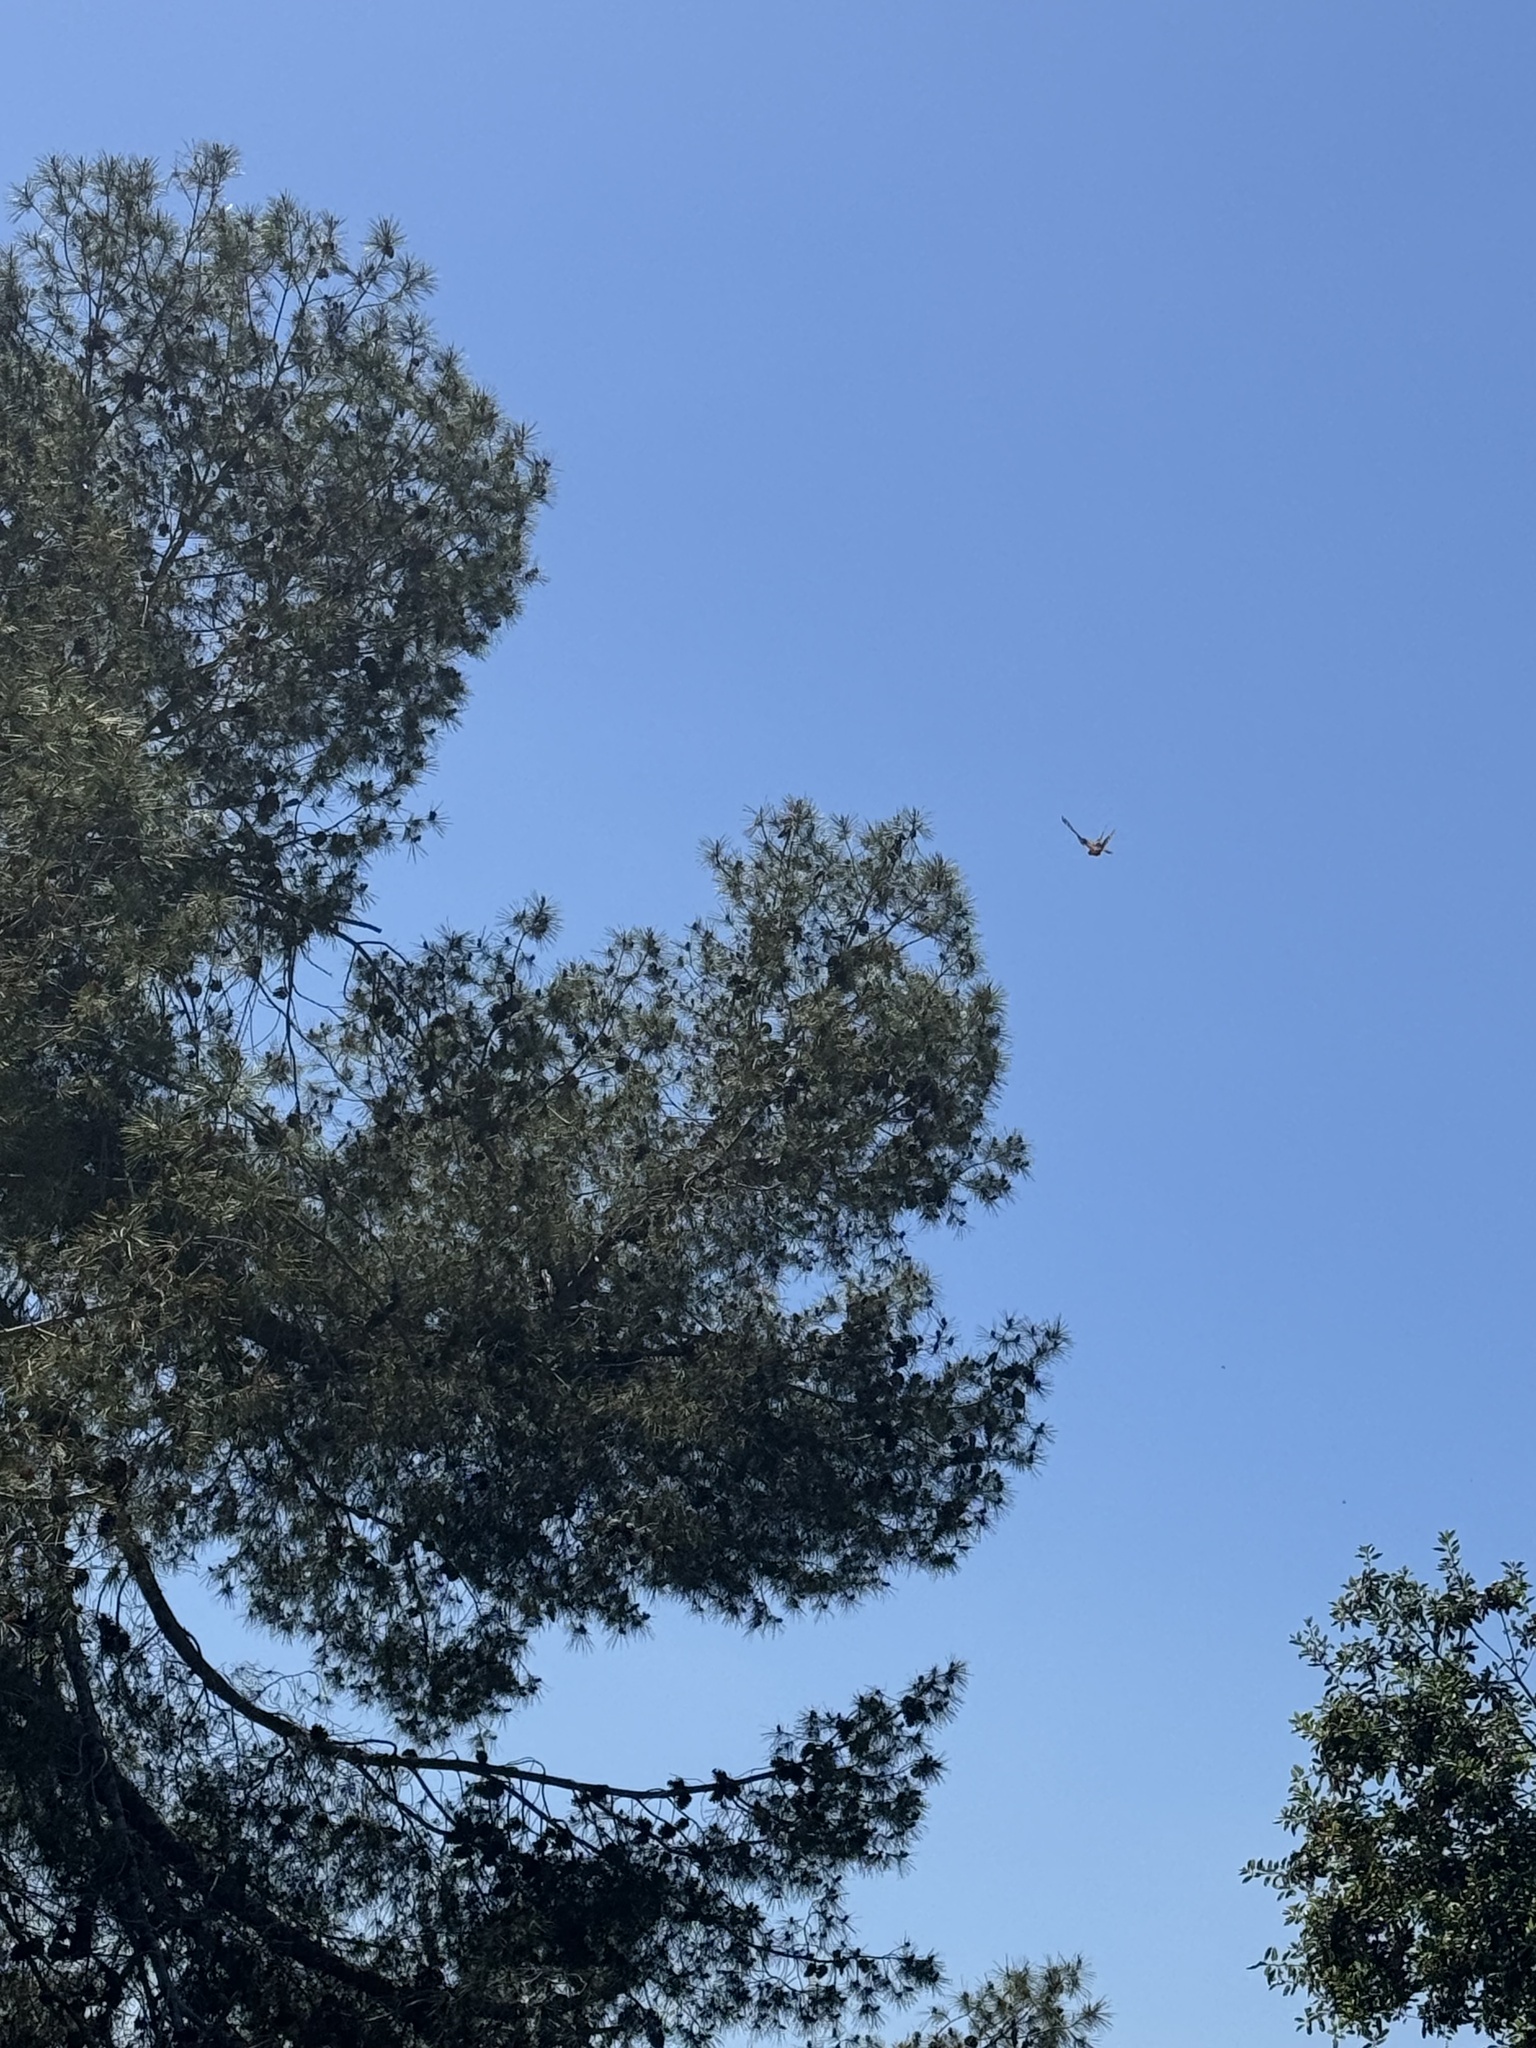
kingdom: Animalia
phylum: Arthropoda
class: Insecta
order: Lepidoptera
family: Nymphalidae
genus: Danaus
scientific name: Danaus plexippus
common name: Monarch
